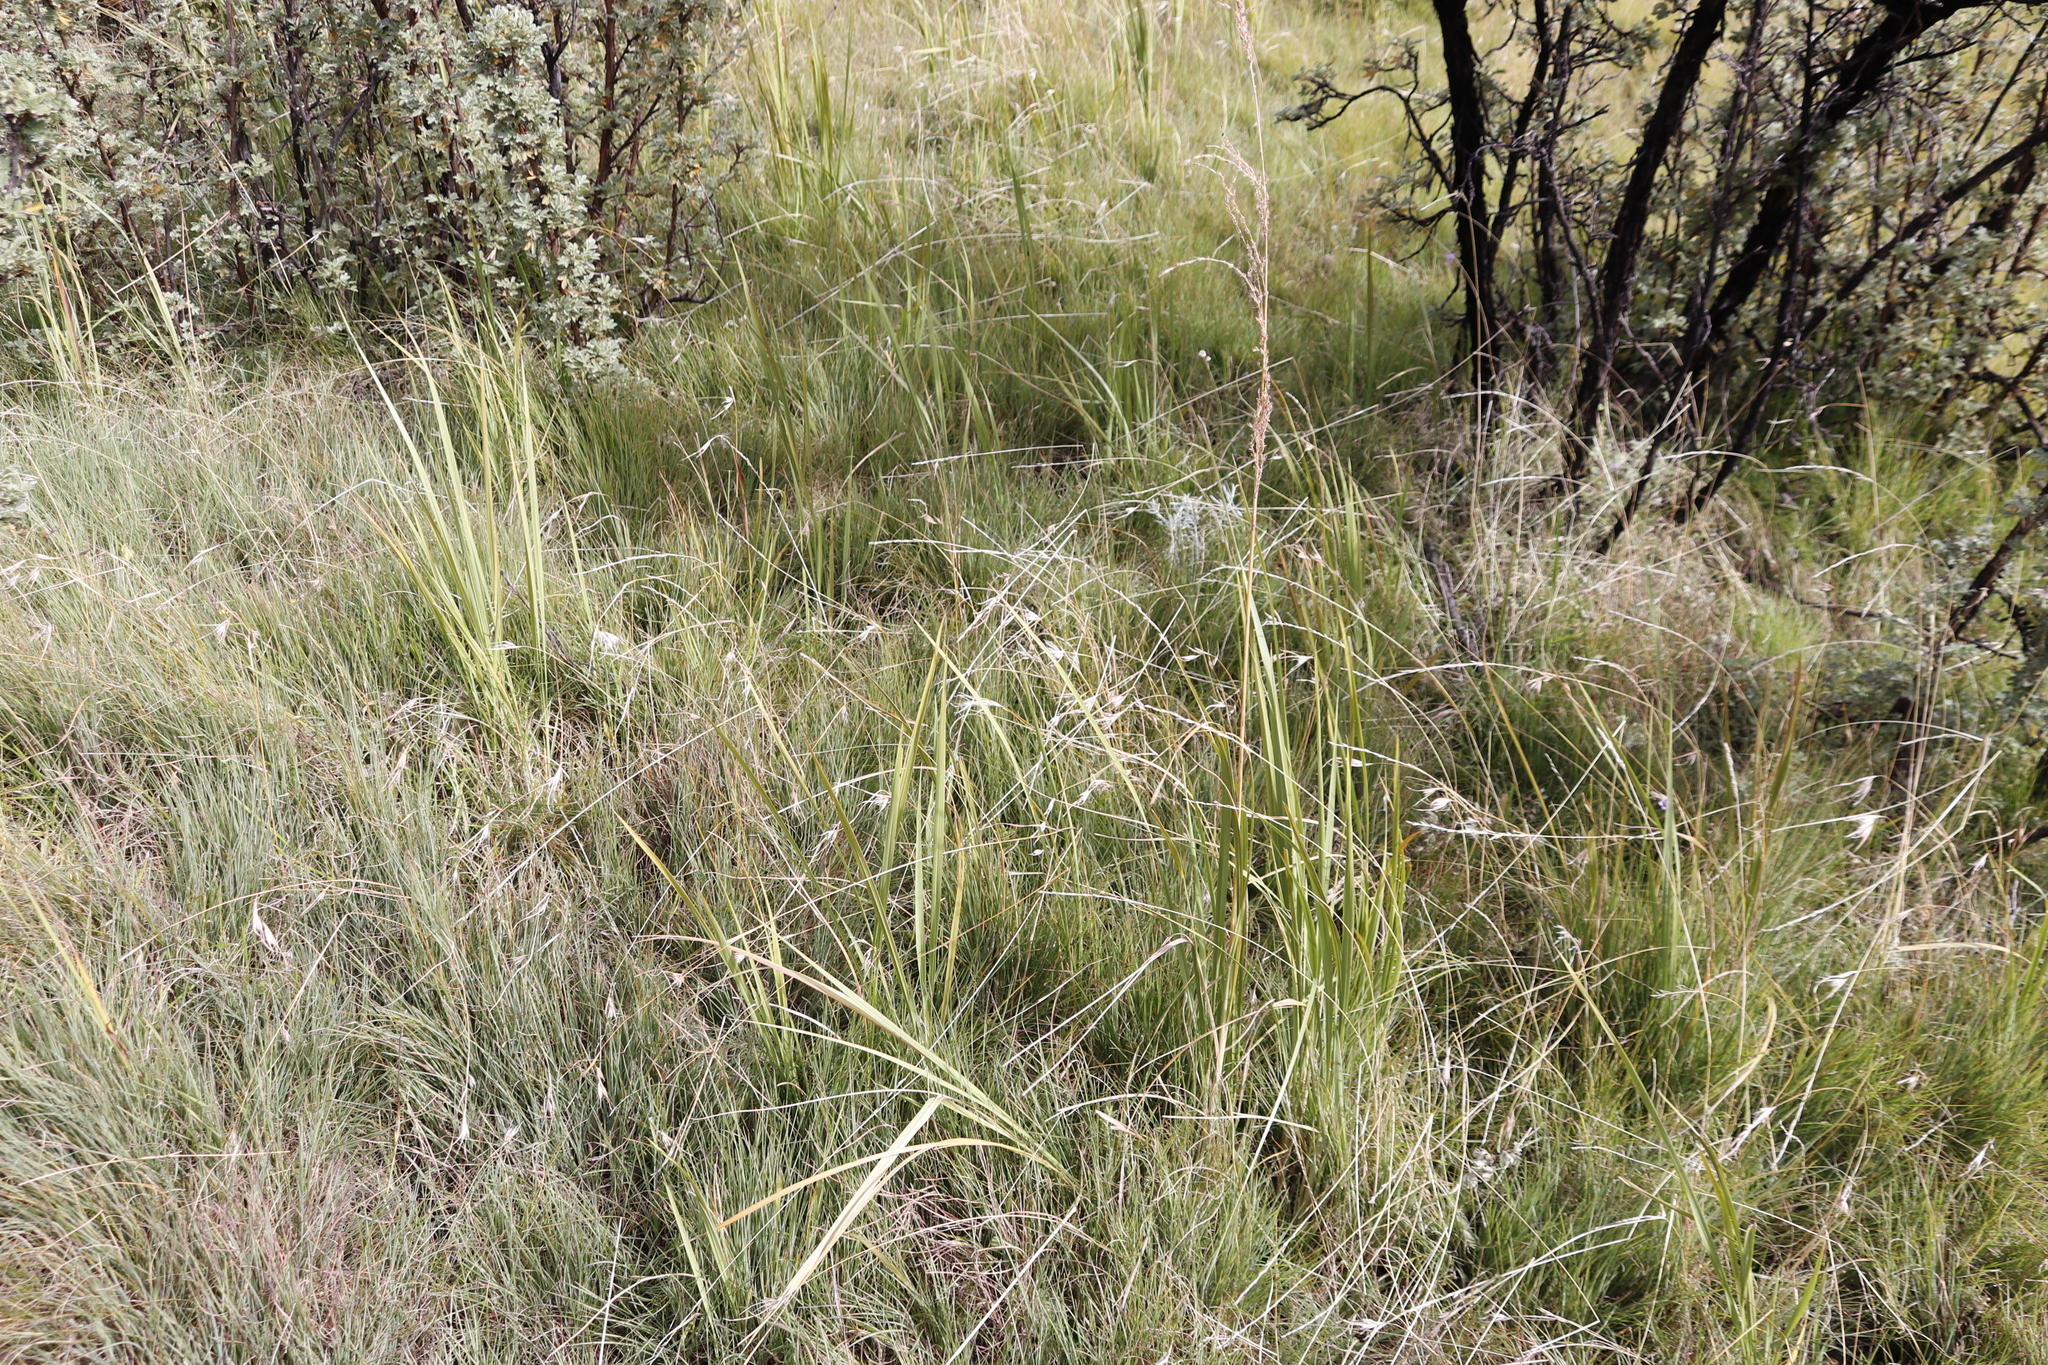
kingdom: Plantae
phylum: Tracheophyta
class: Liliopsida
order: Poales
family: Poaceae
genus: Themeda
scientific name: Themeda triandra
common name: Kangaroo grass
